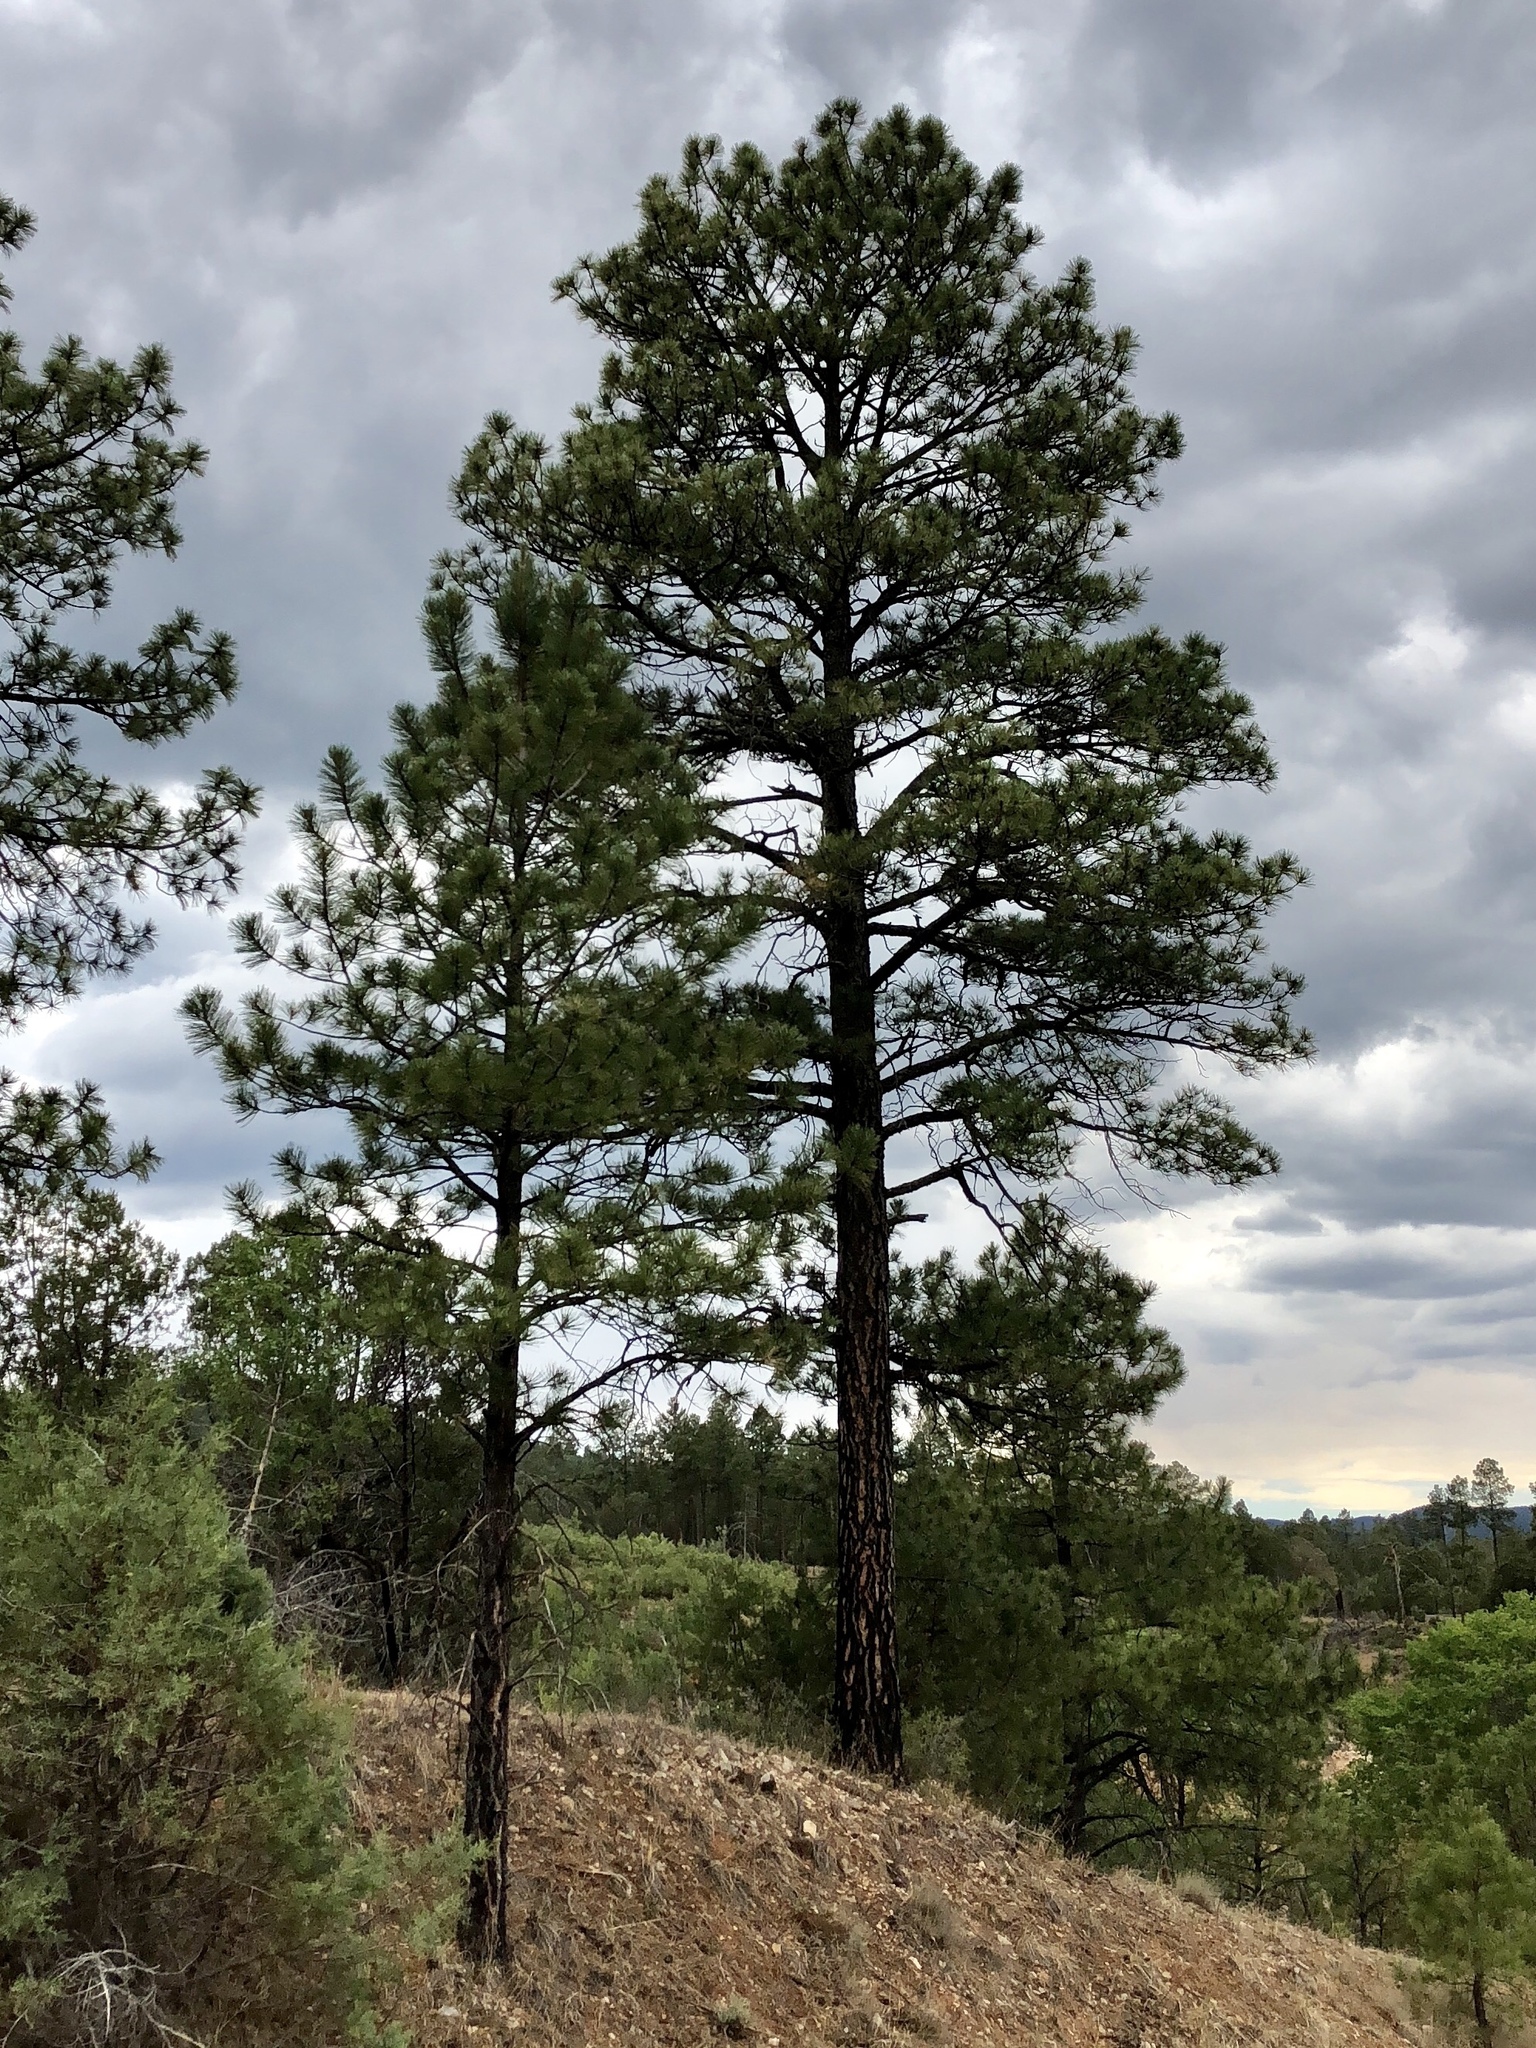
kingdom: Plantae
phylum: Tracheophyta
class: Pinopsida
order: Pinales
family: Pinaceae
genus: Pinus
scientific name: Pinus ponderosa
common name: Western yellow-pine
